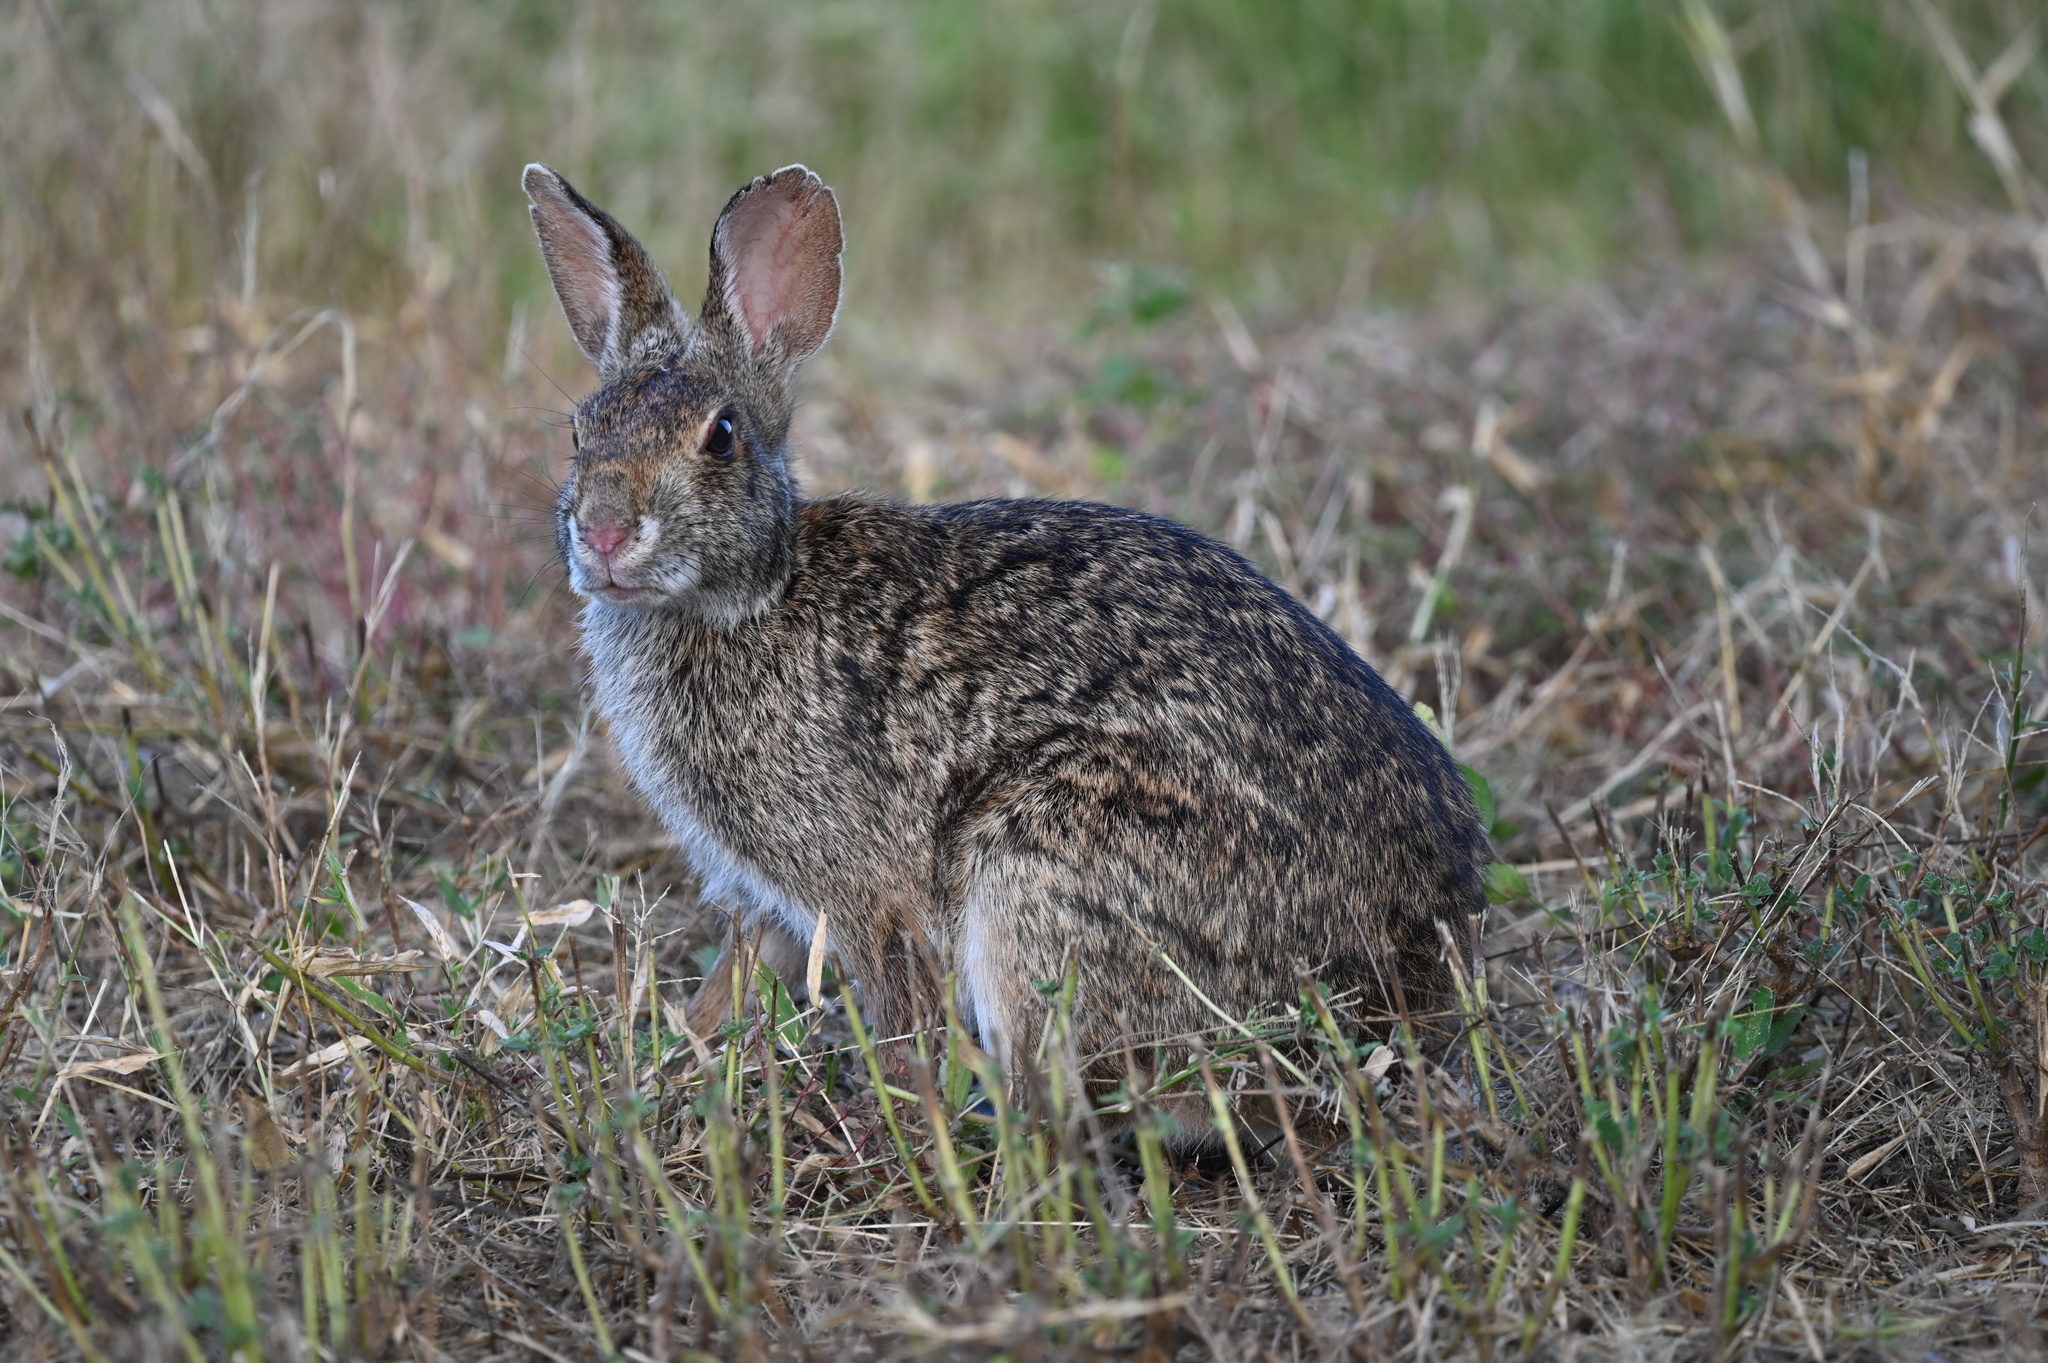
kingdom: Animalia
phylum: Chordata
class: Mammalia
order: Lagomorpha
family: Leporidae
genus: Sylvilagus
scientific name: Sylvilagus aquaticus
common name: Swamp rabbit
